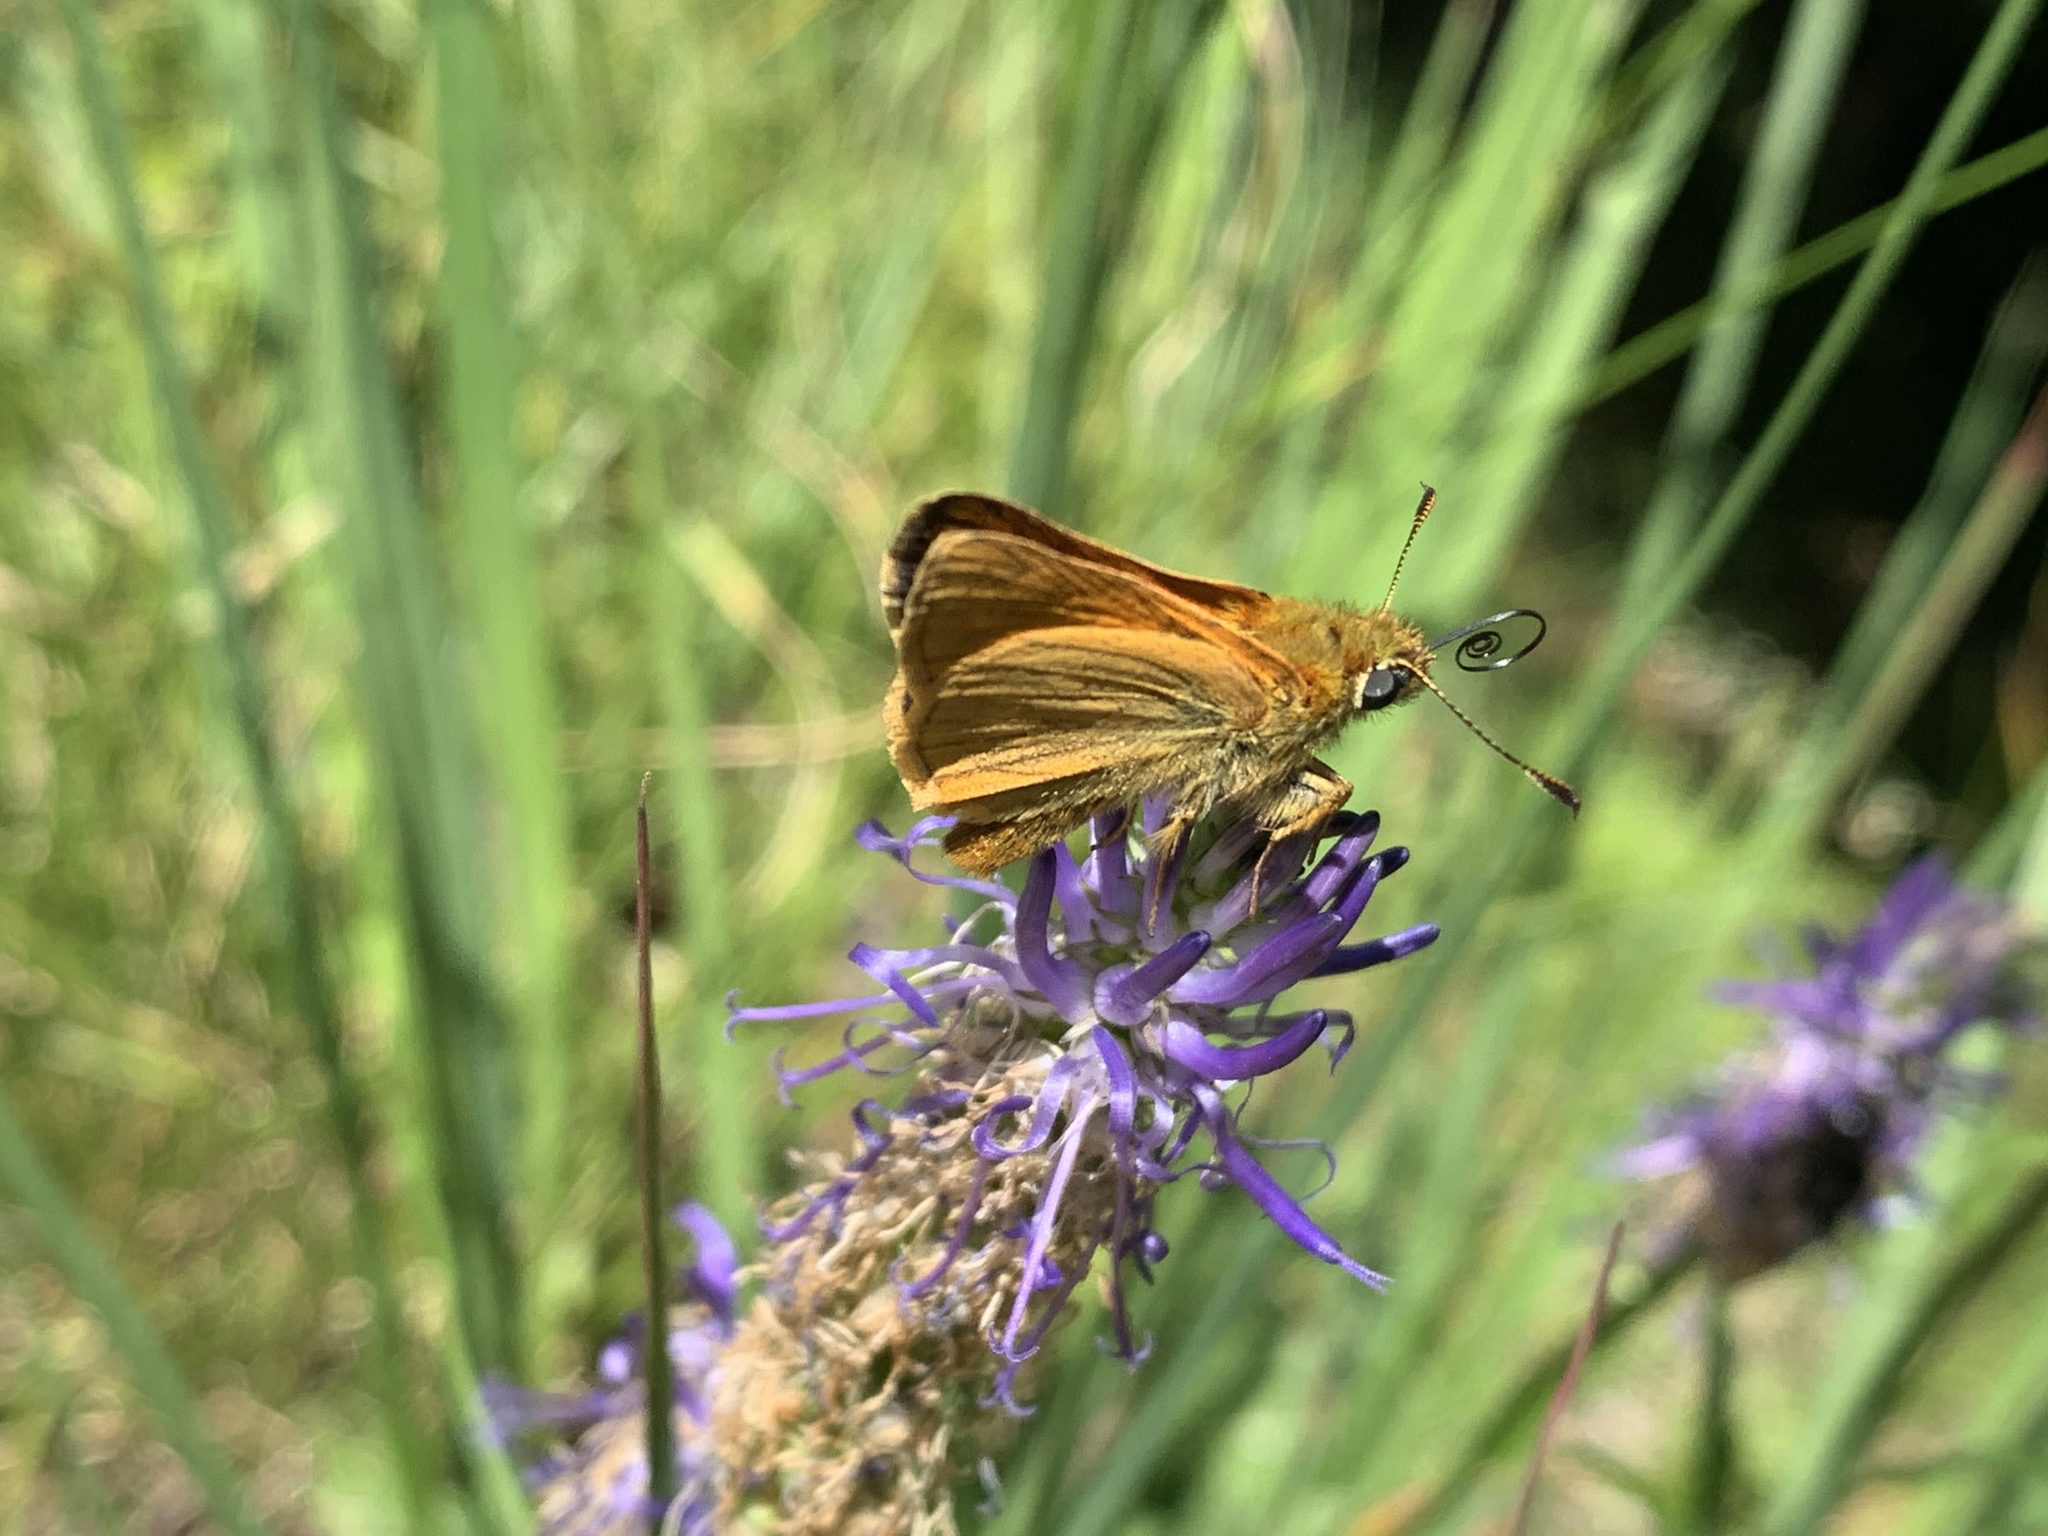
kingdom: Animalia
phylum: Arthropoda
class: Insecta
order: Lepidoptera
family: Hesperiidae
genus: Ochlodes
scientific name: Ochlodes venata
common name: Large skipper
